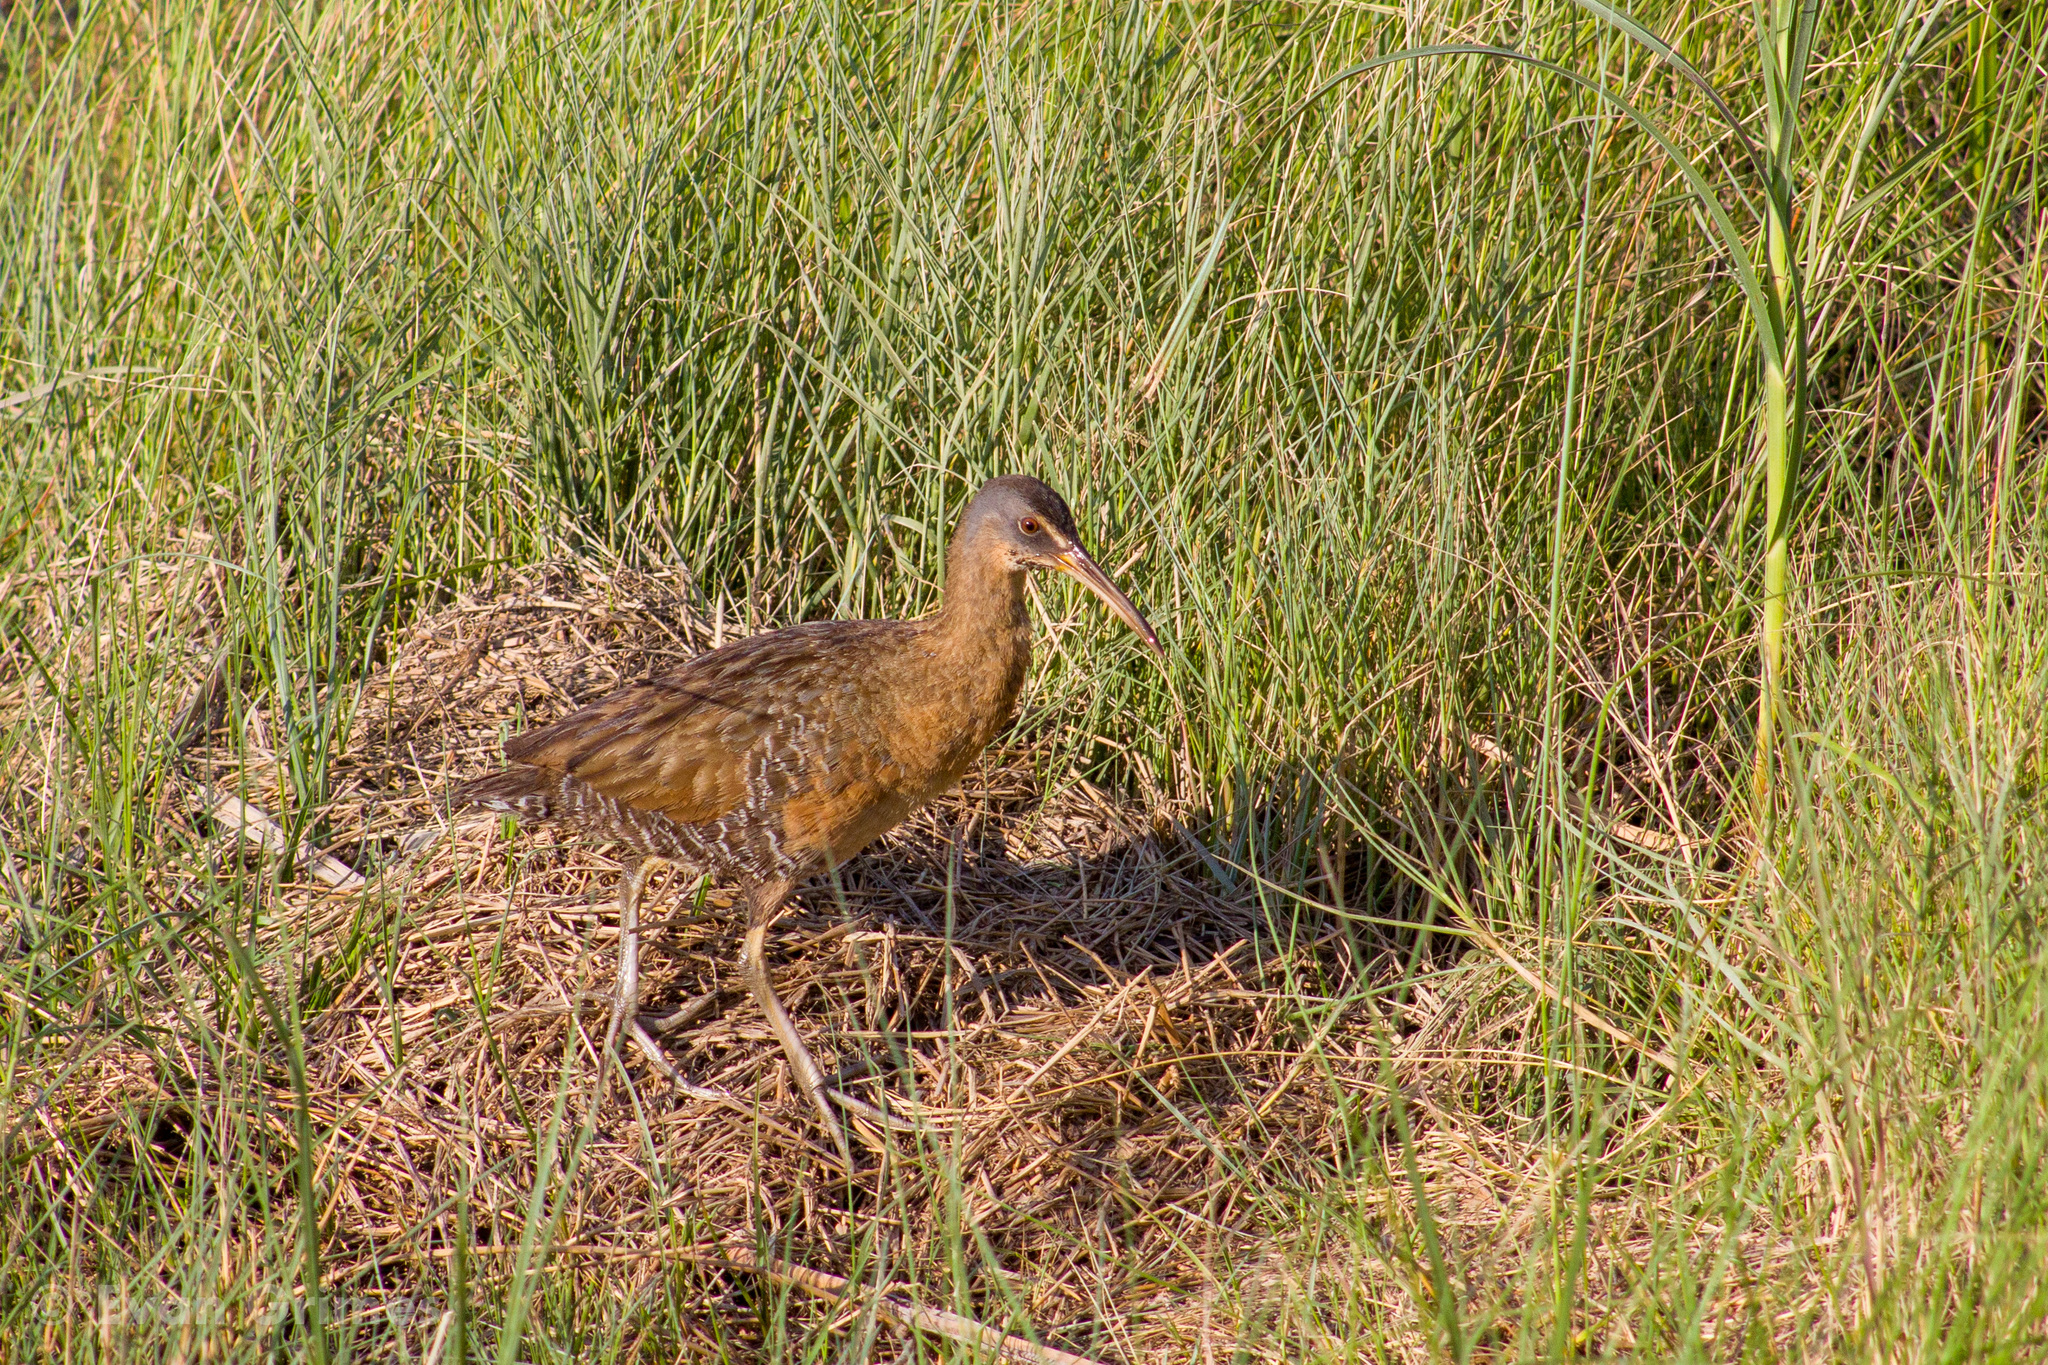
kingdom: Animalia
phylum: Chordata
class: Aves
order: Gruiformes
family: Rallidae
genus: Rallus
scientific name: Rallus elegans
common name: King rail
